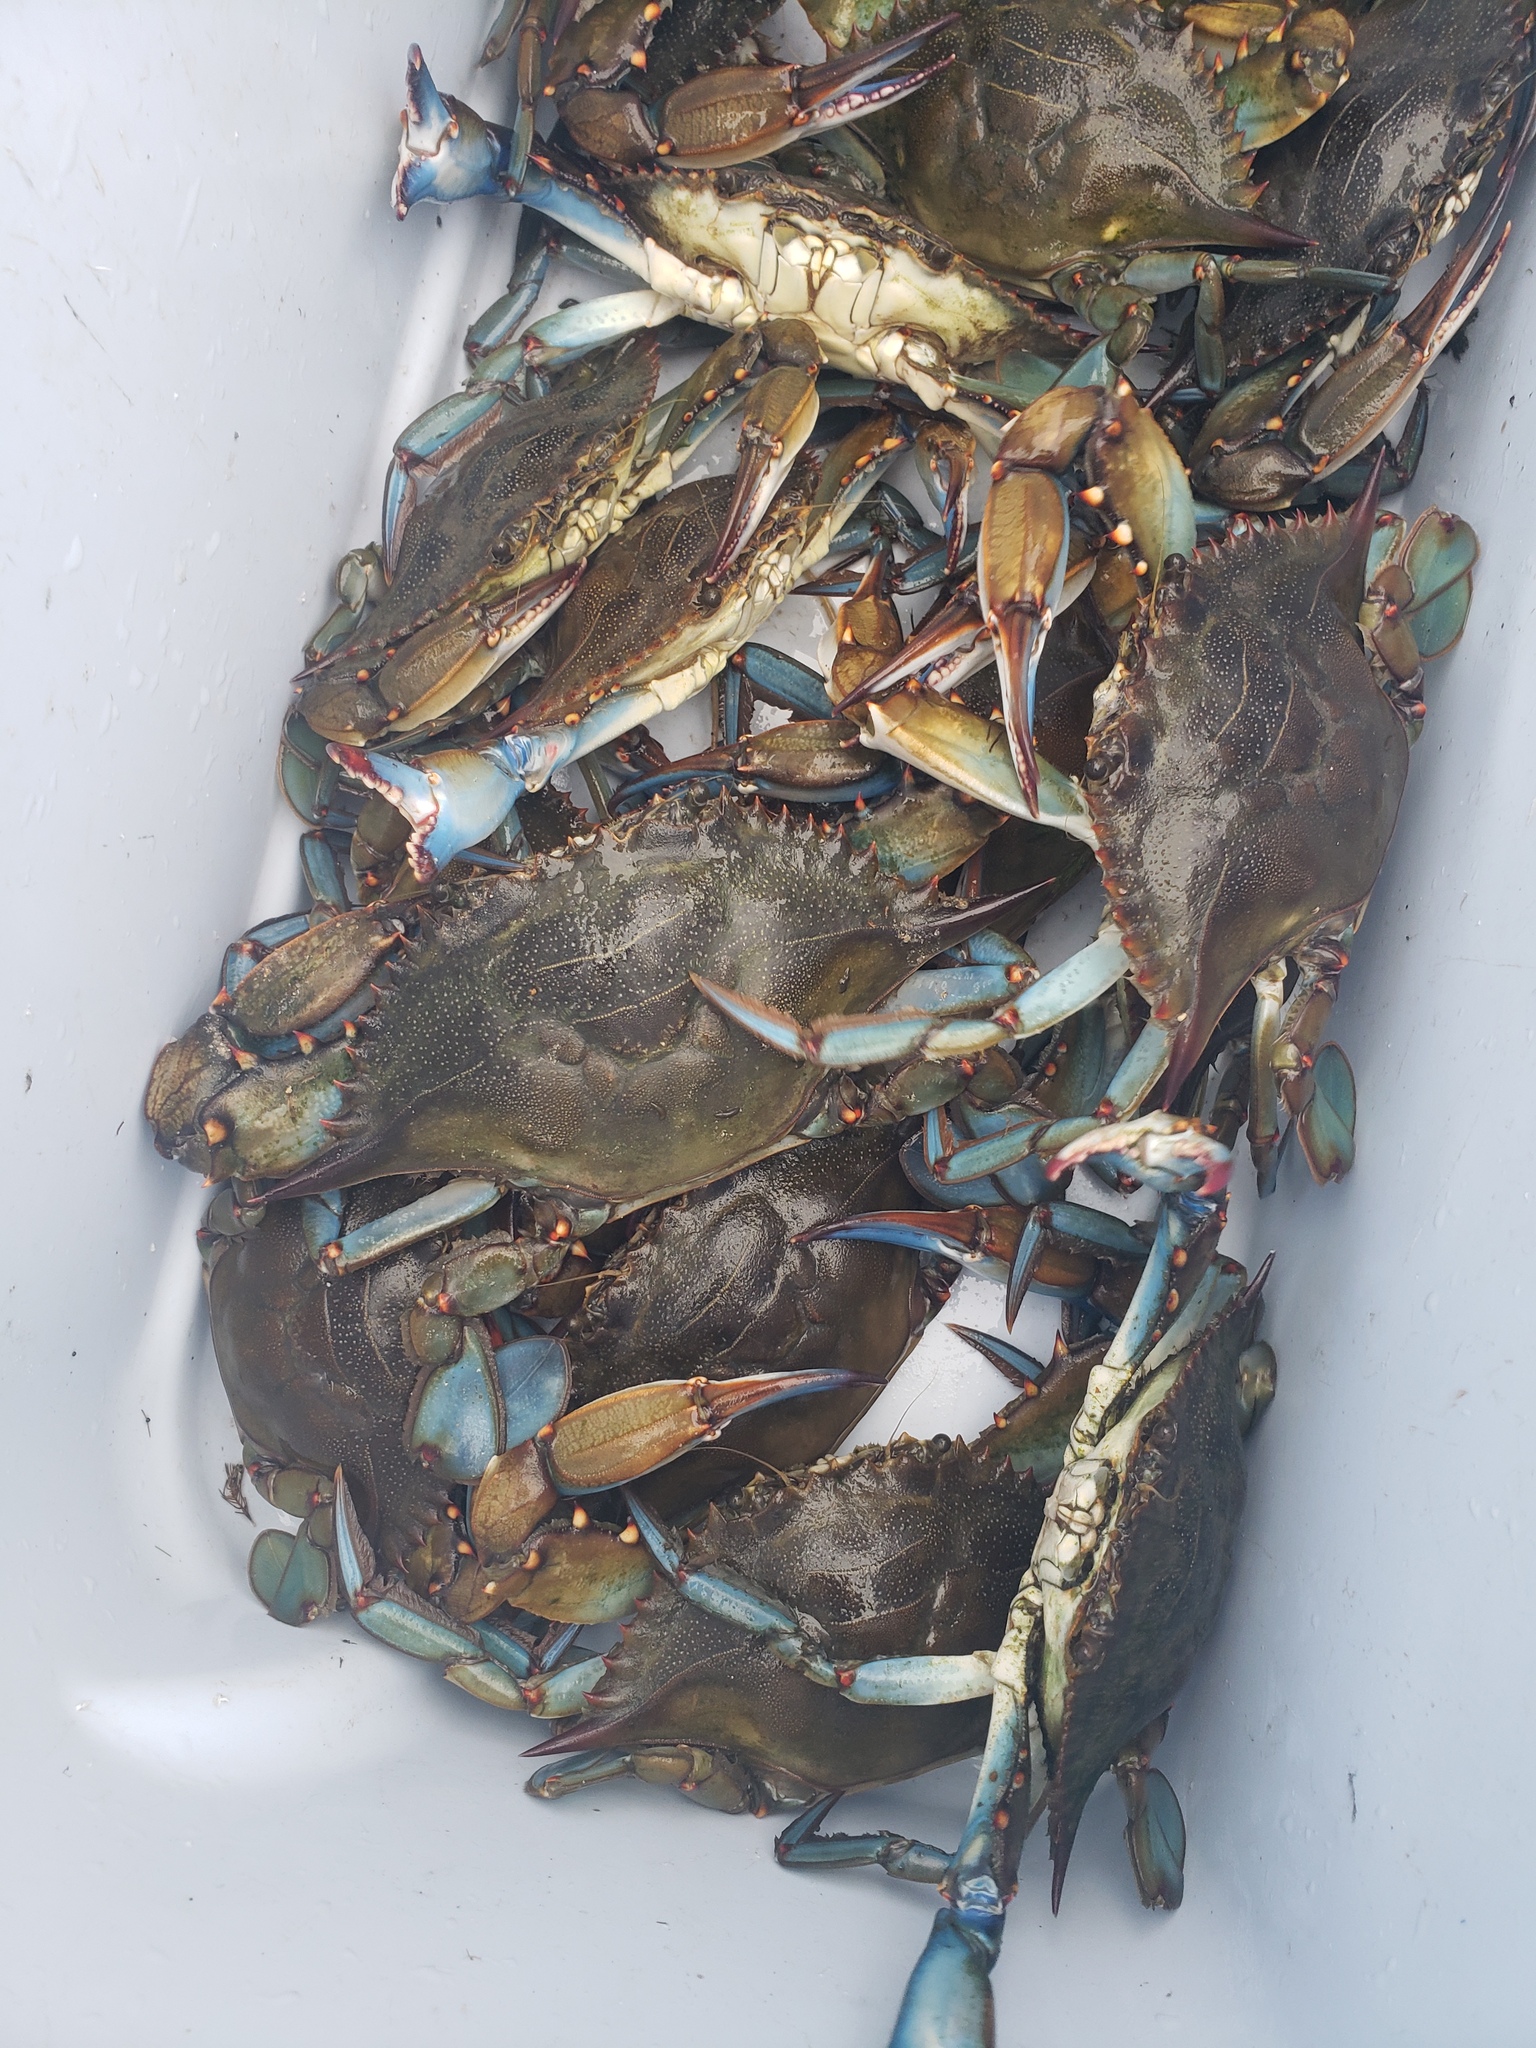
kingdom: Animalia
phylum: Arthropoda
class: Malacostraca
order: Decapoda
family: Portunidae
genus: Callinectes
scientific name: Callinectes sapidus
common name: Blue crab
